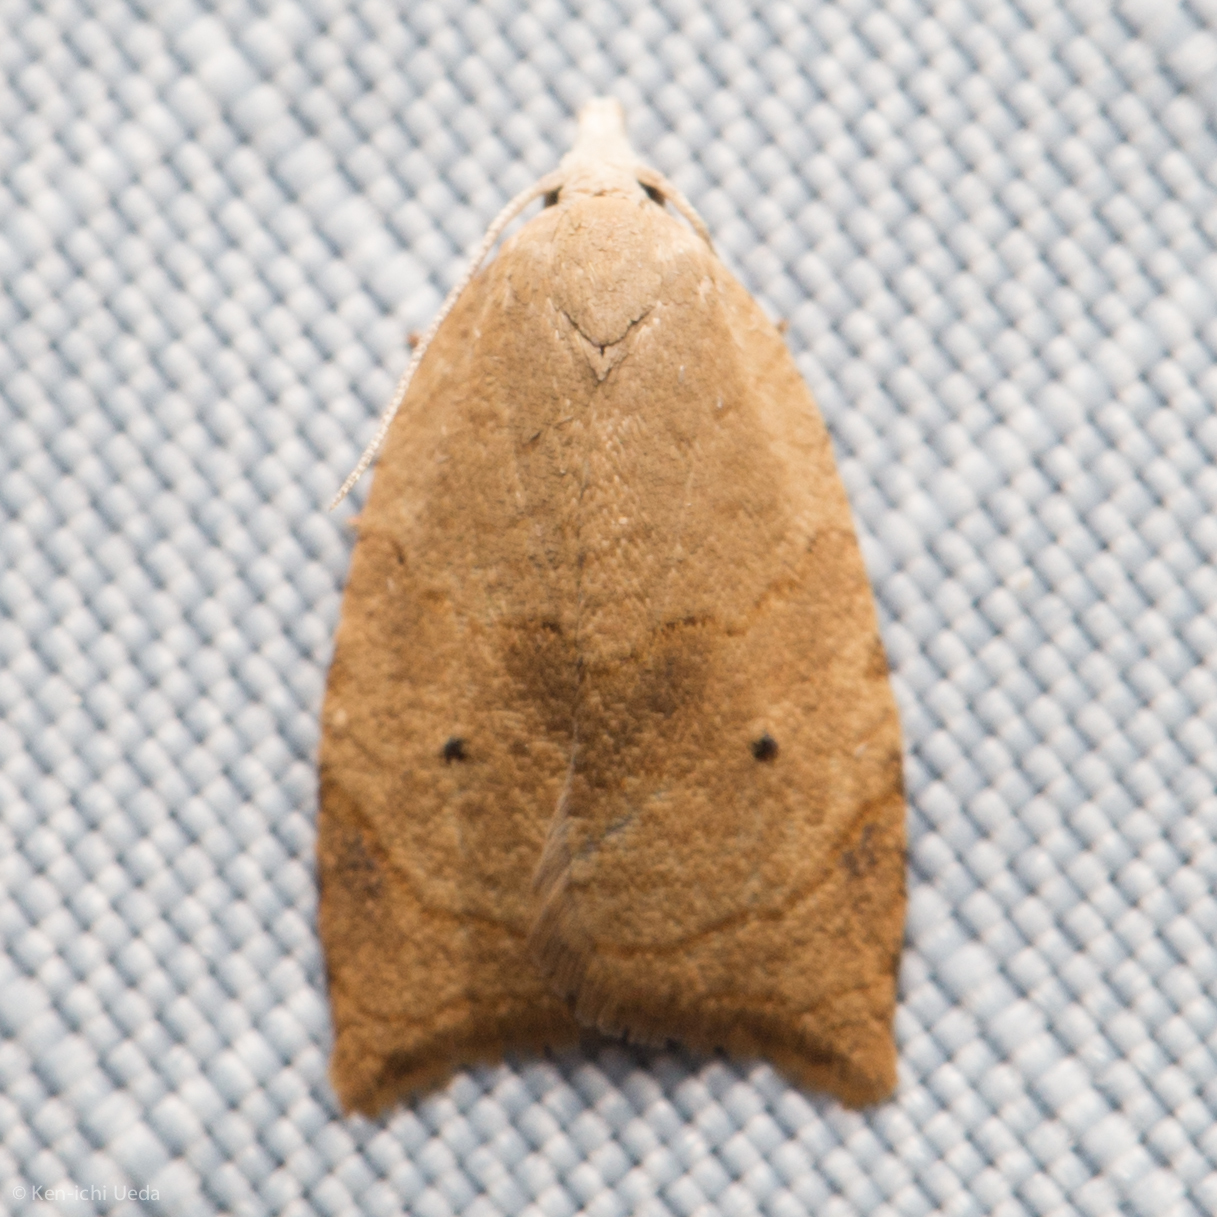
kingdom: Animalia
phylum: Arthropoda
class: Insecta
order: Lepidoptera
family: Tortricidae
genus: Coelostathma
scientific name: Coelostathma discopunctana
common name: Batman moth
